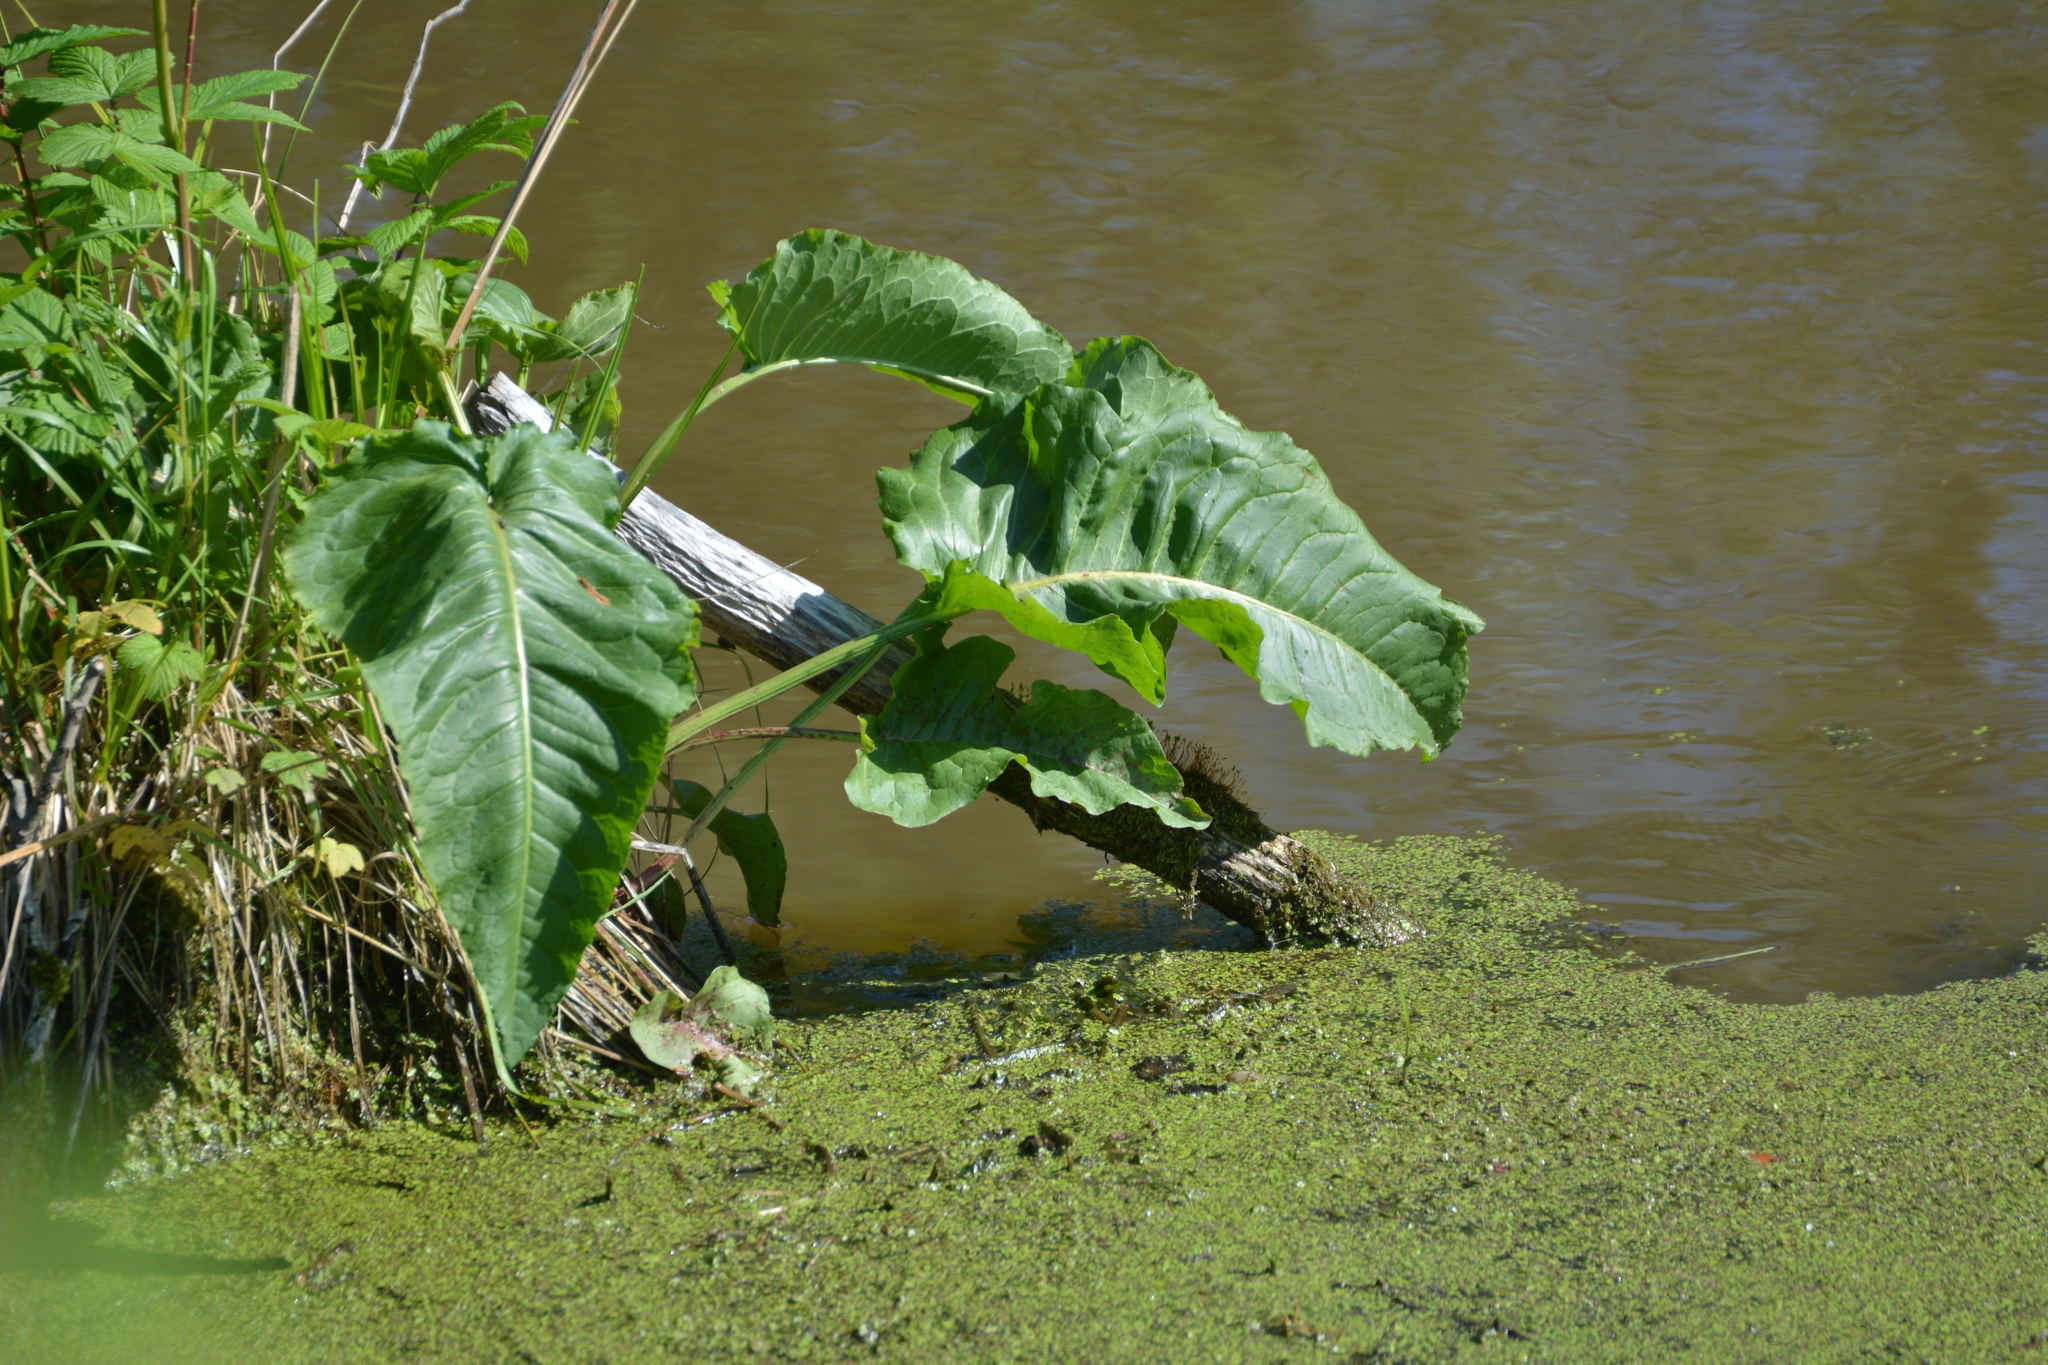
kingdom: Plantae
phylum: Tracheophyta
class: Magnoliopsida
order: Caryophyllales
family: Polygonaceae
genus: Rumex
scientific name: Rumex aquaticus
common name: Scottish dock
